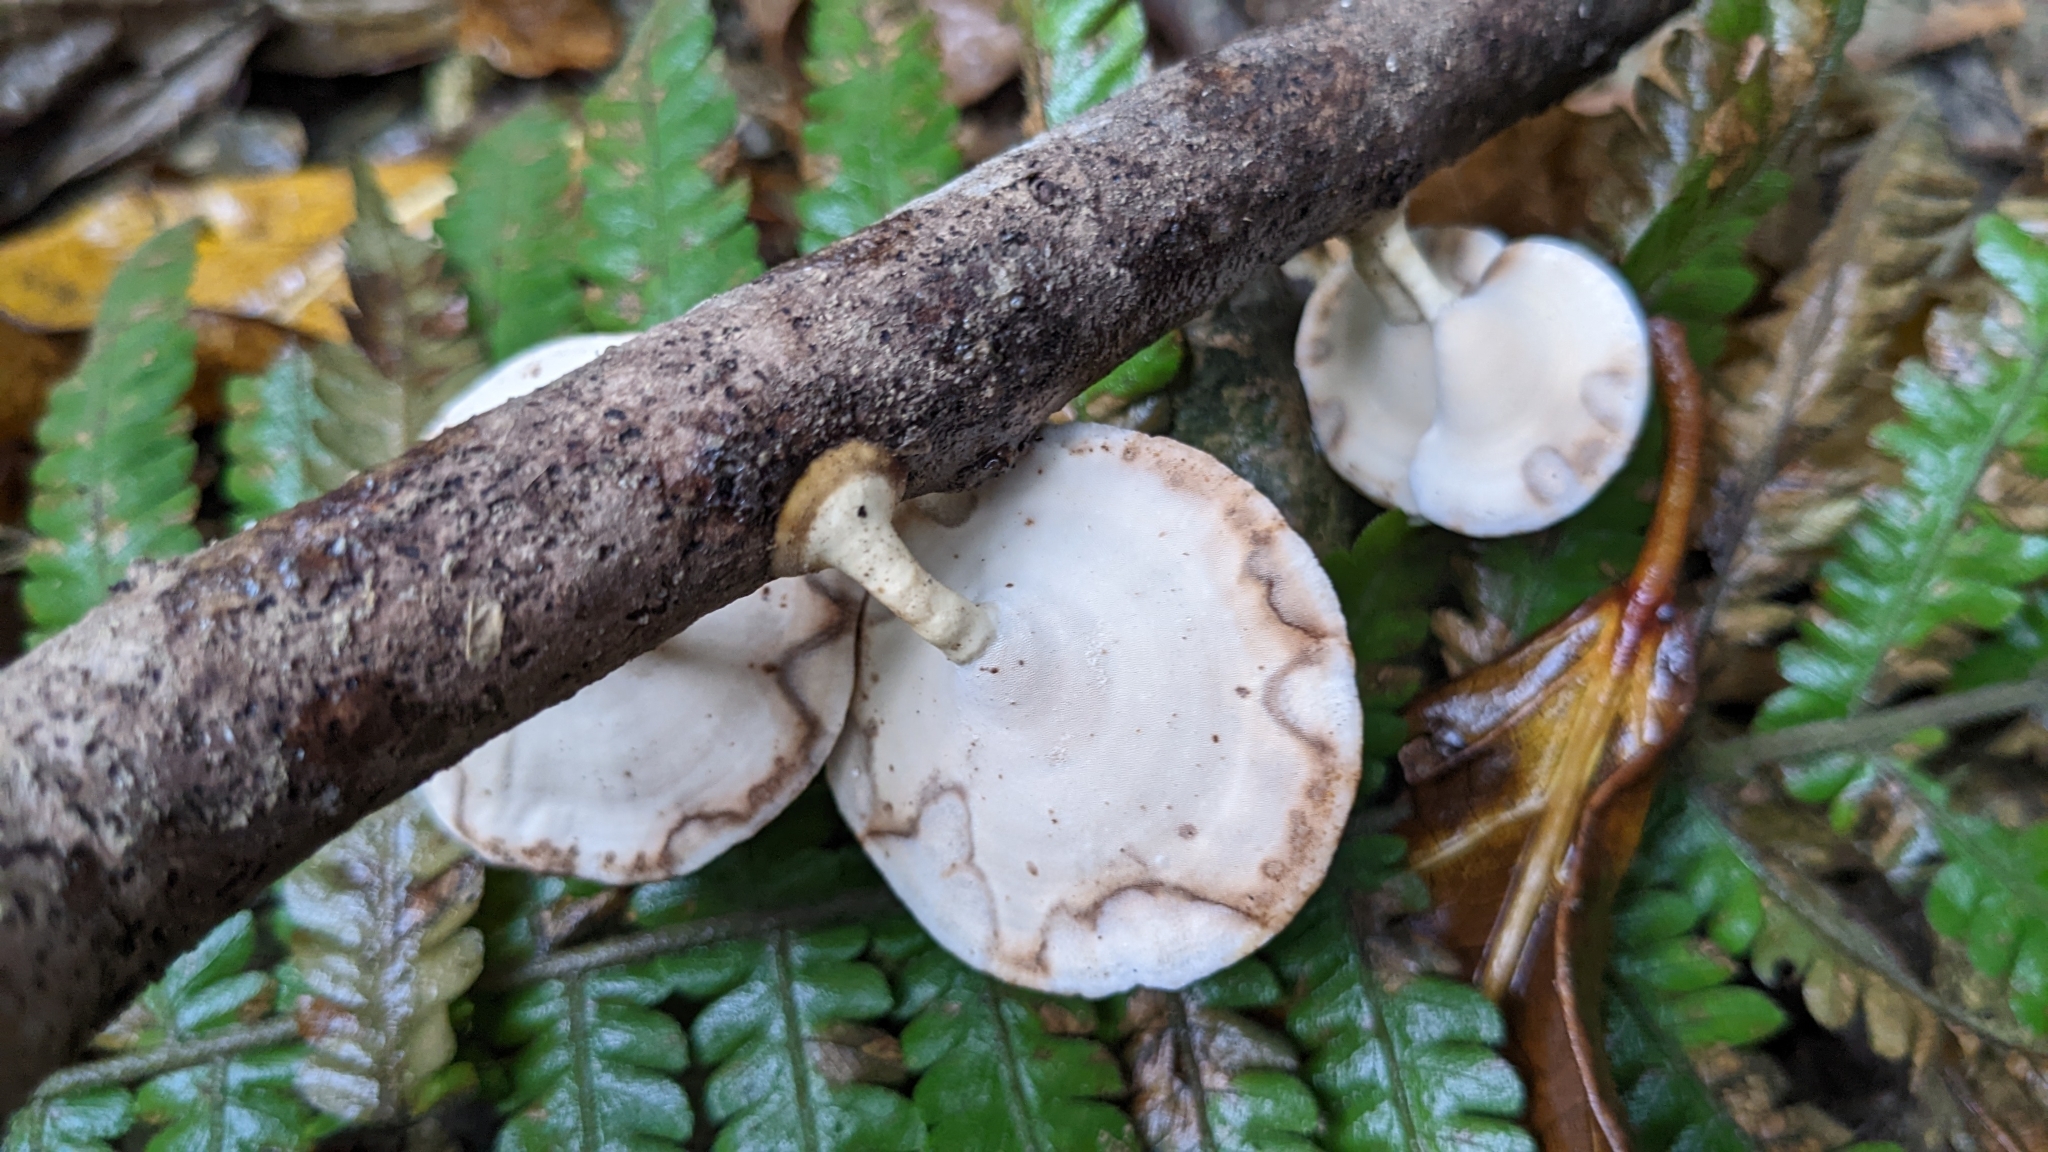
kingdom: Fungi
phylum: Basidiomycota
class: Agaricomycetes
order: Polyporales
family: Polyporaceae
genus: Microporus
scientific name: Microporus xanthopus
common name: Yellow-stemmed micropore
